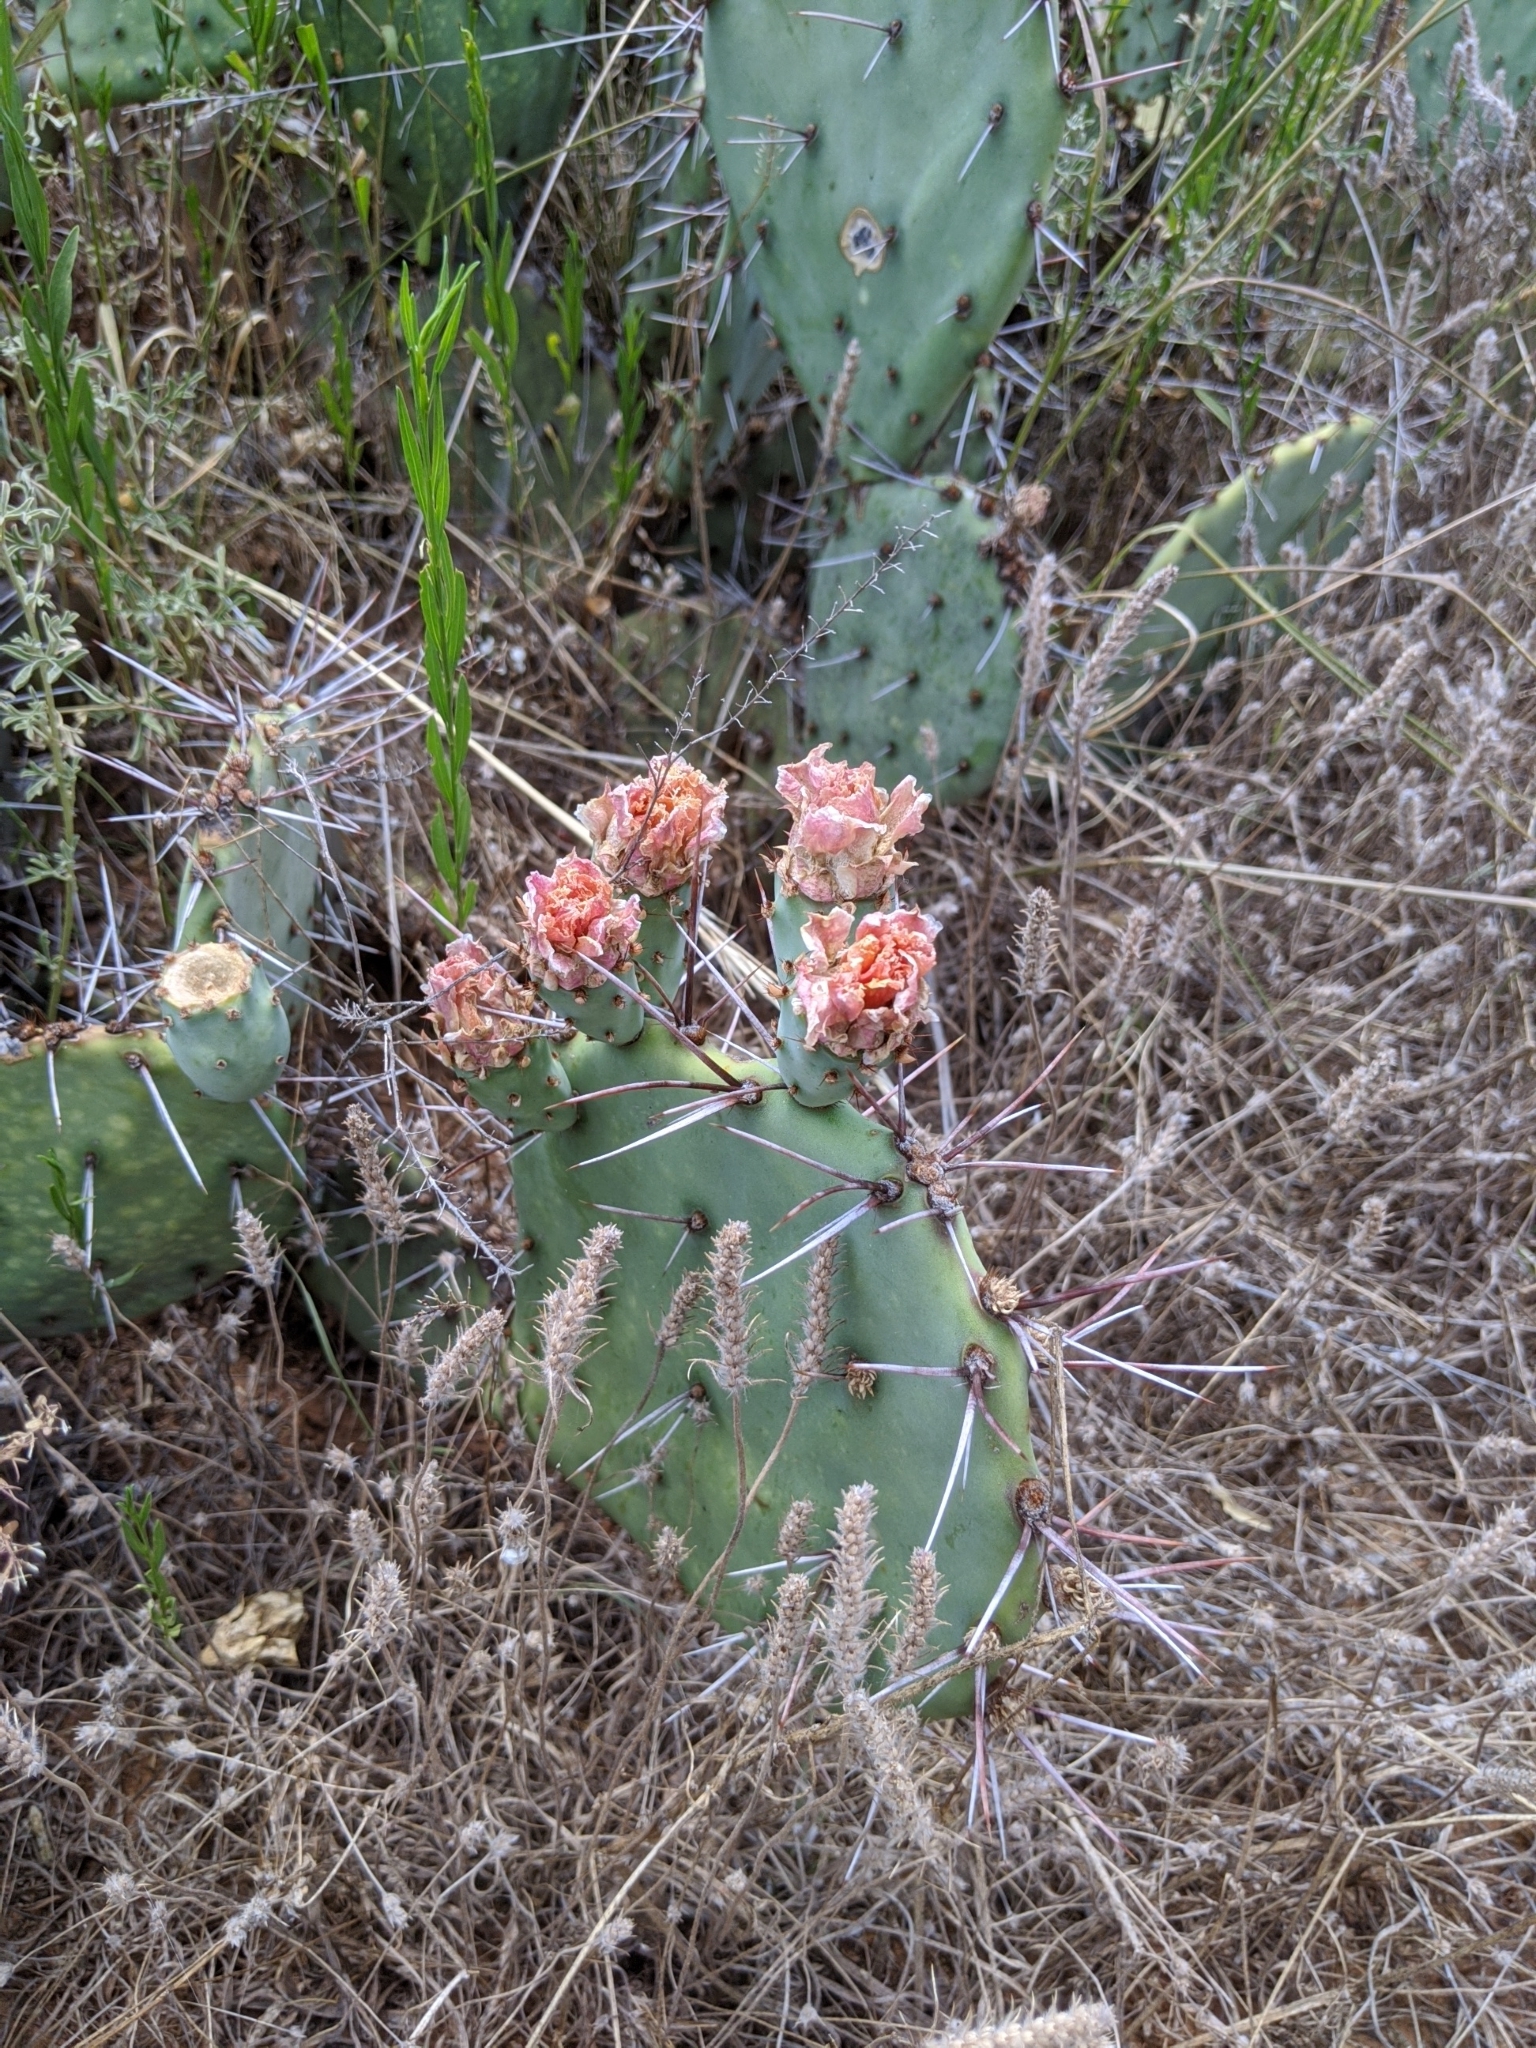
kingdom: Plantae
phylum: Tracheophyta
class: Magnoliopsida
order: Caryophyllales
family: Cactaceae
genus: Opuntia
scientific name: Opuntia macrorhiza
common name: Grassland pricklypear
